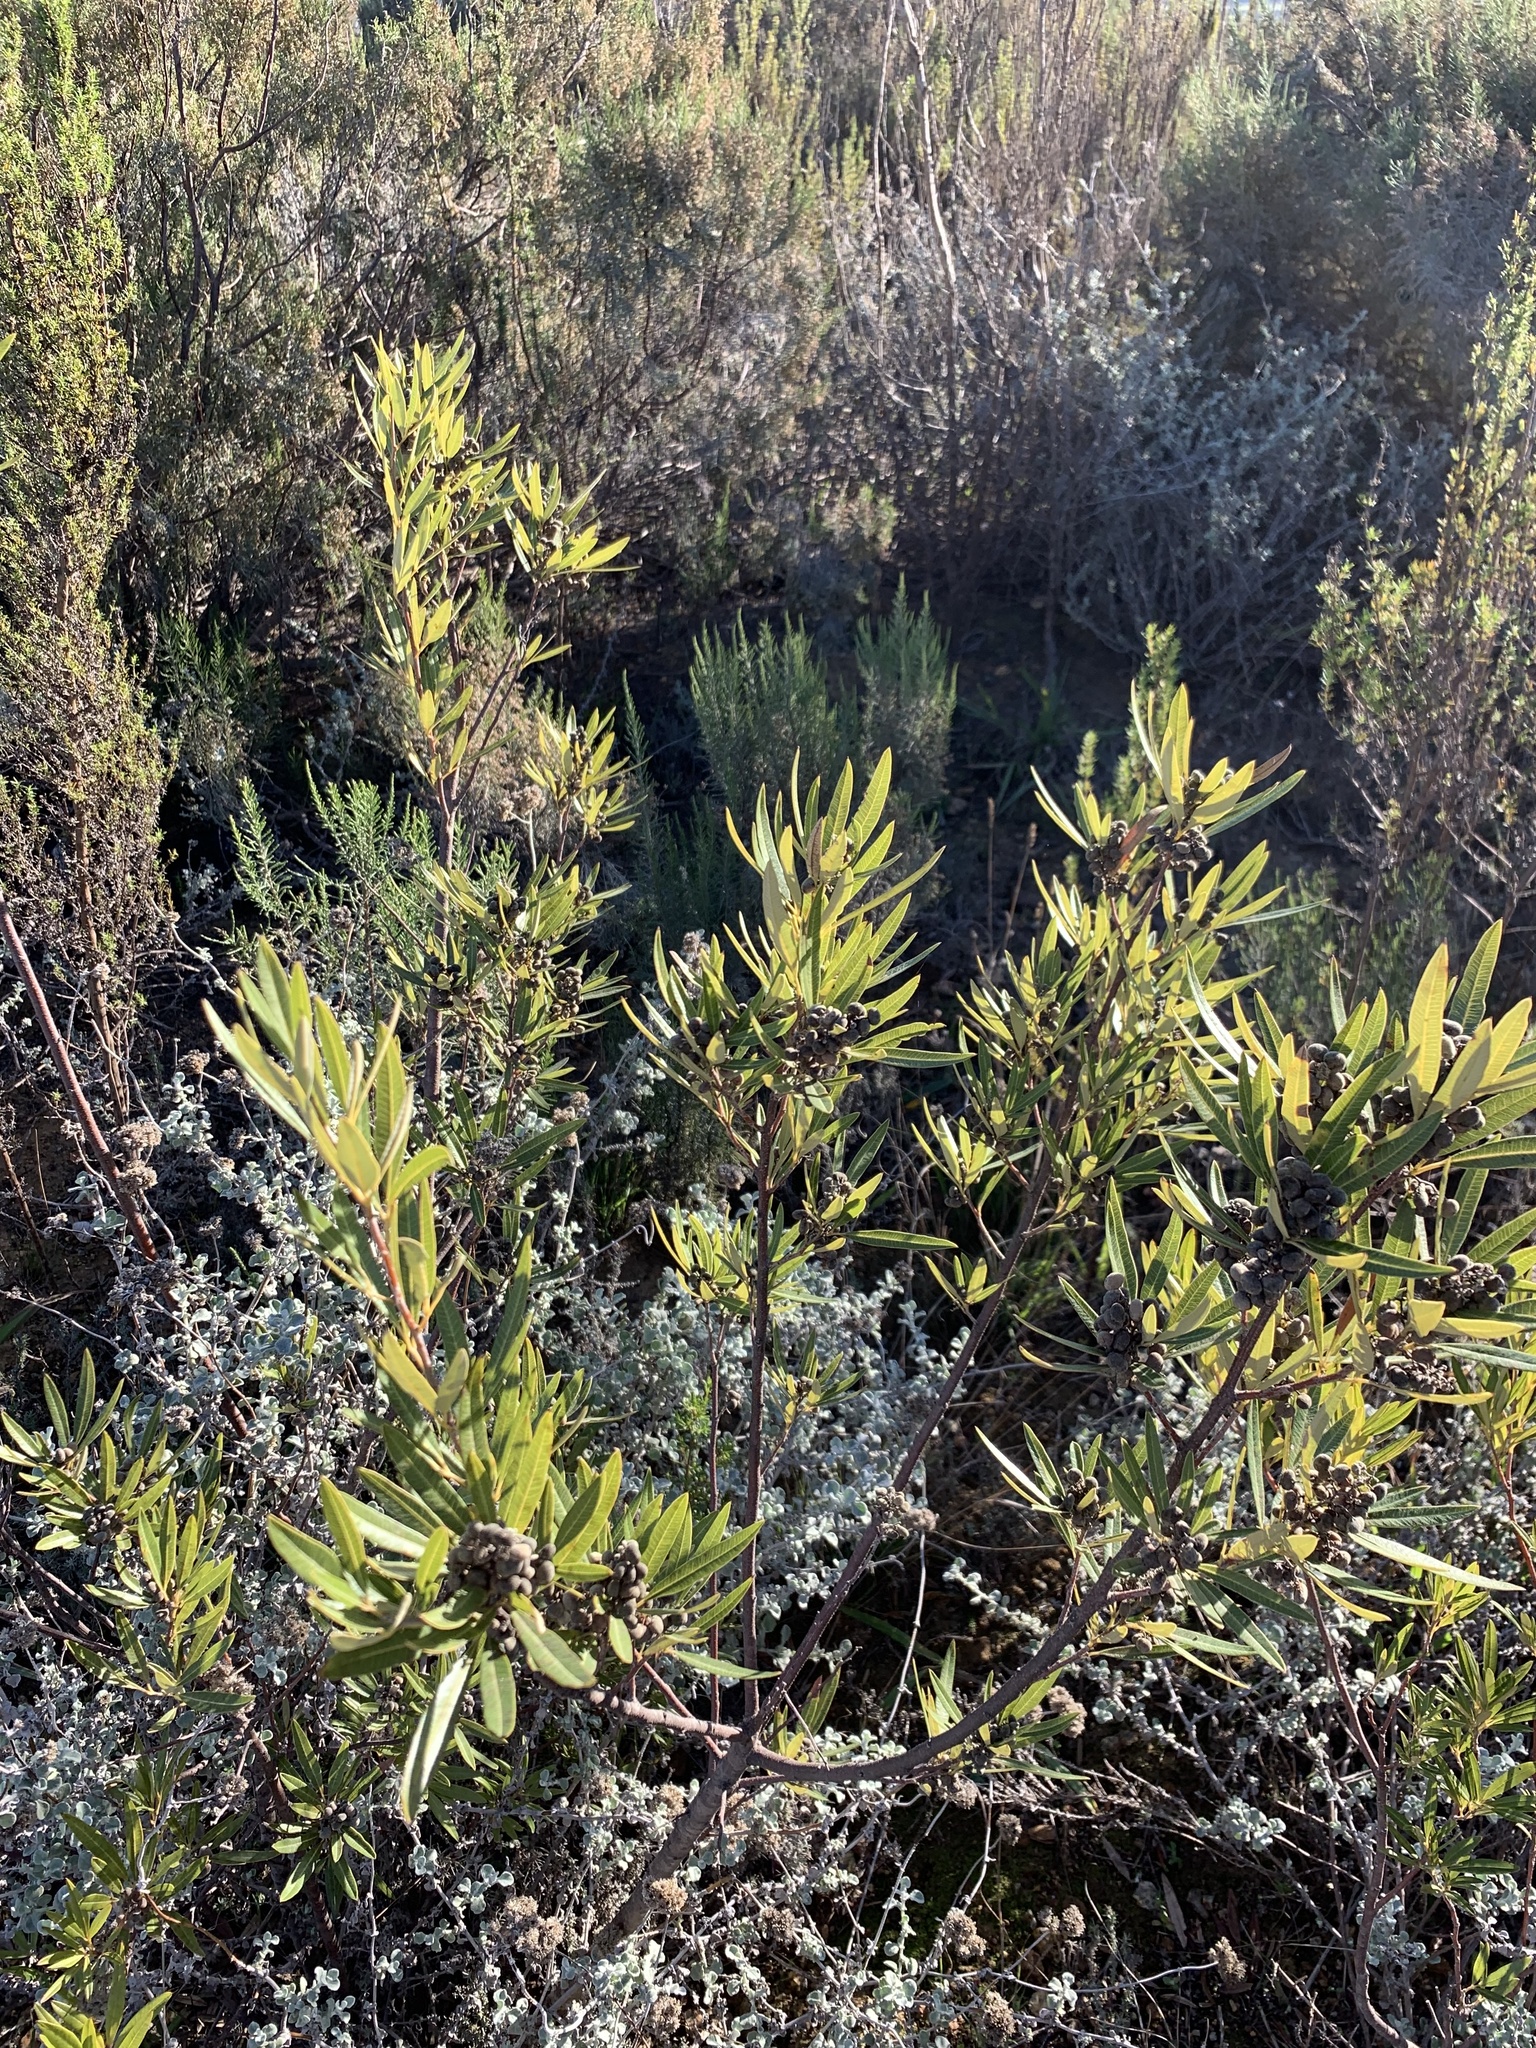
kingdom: Plantae
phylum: Tracheophyta
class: Magnoliopsida
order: Sapindales
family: Anacardiaceae
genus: Searsia
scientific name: Searsia angustifolia
